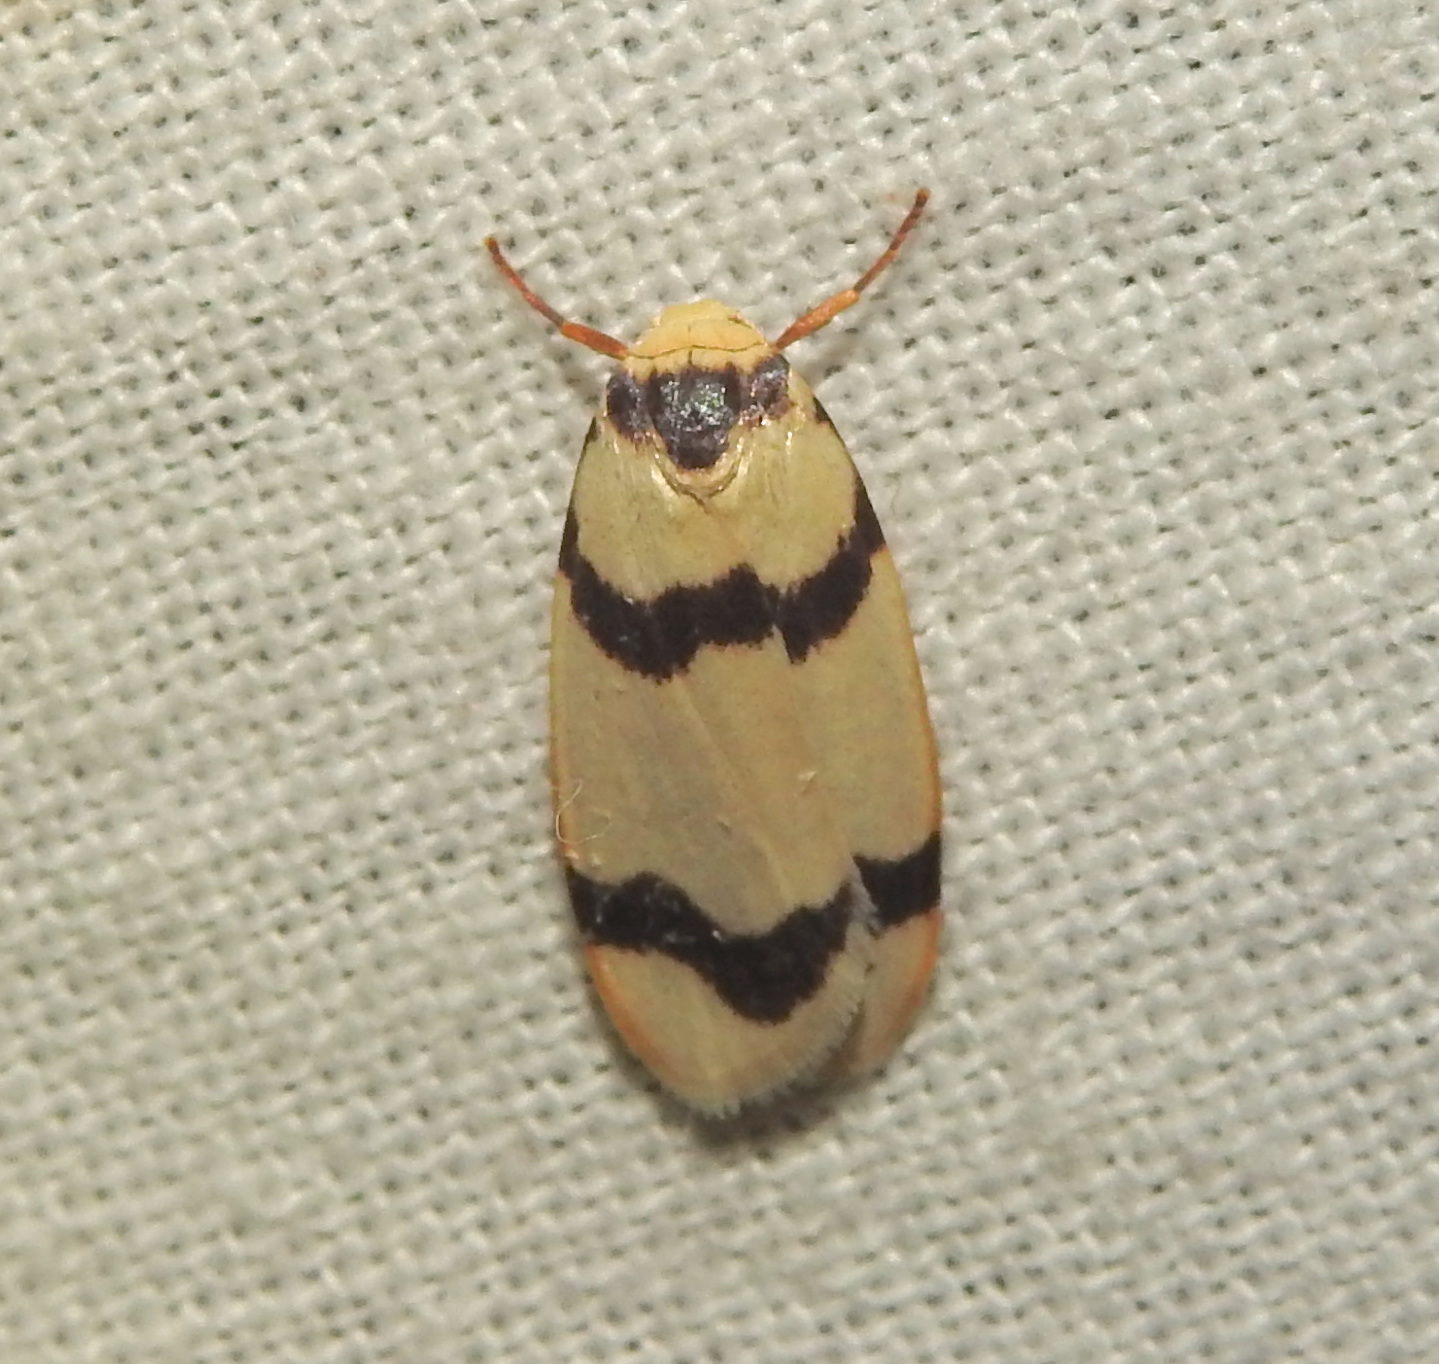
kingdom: Animalia
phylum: Arthropoda
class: Insecta
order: Lepidoptera
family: Erebidae
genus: Padenia
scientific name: Padenia transversa
